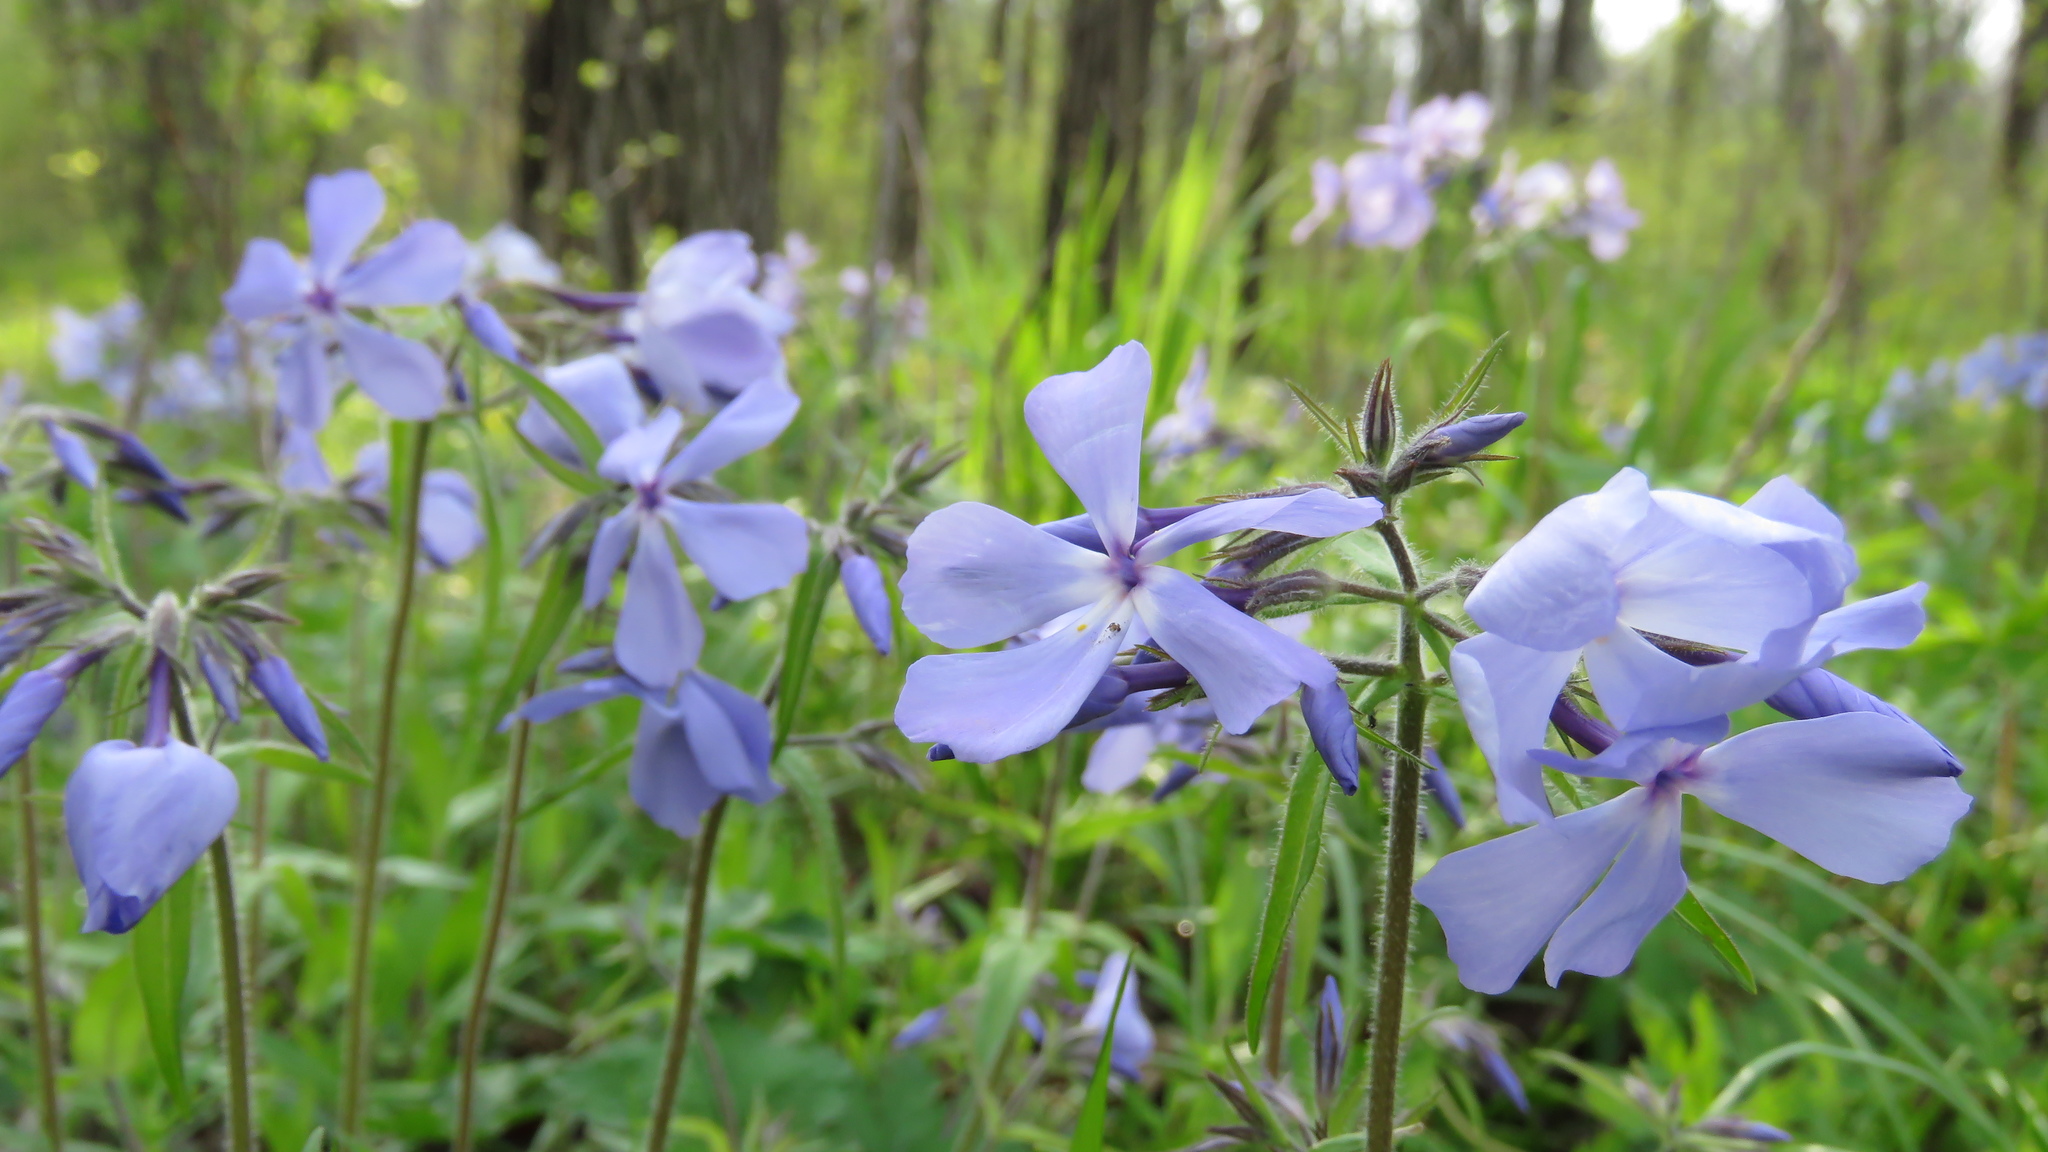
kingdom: Plantae
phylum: Tracheophyta
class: Magnoliopsida
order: Ericales
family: Polemoniaceae
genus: Phlox
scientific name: Phlox divaricata
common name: Blue phlox
